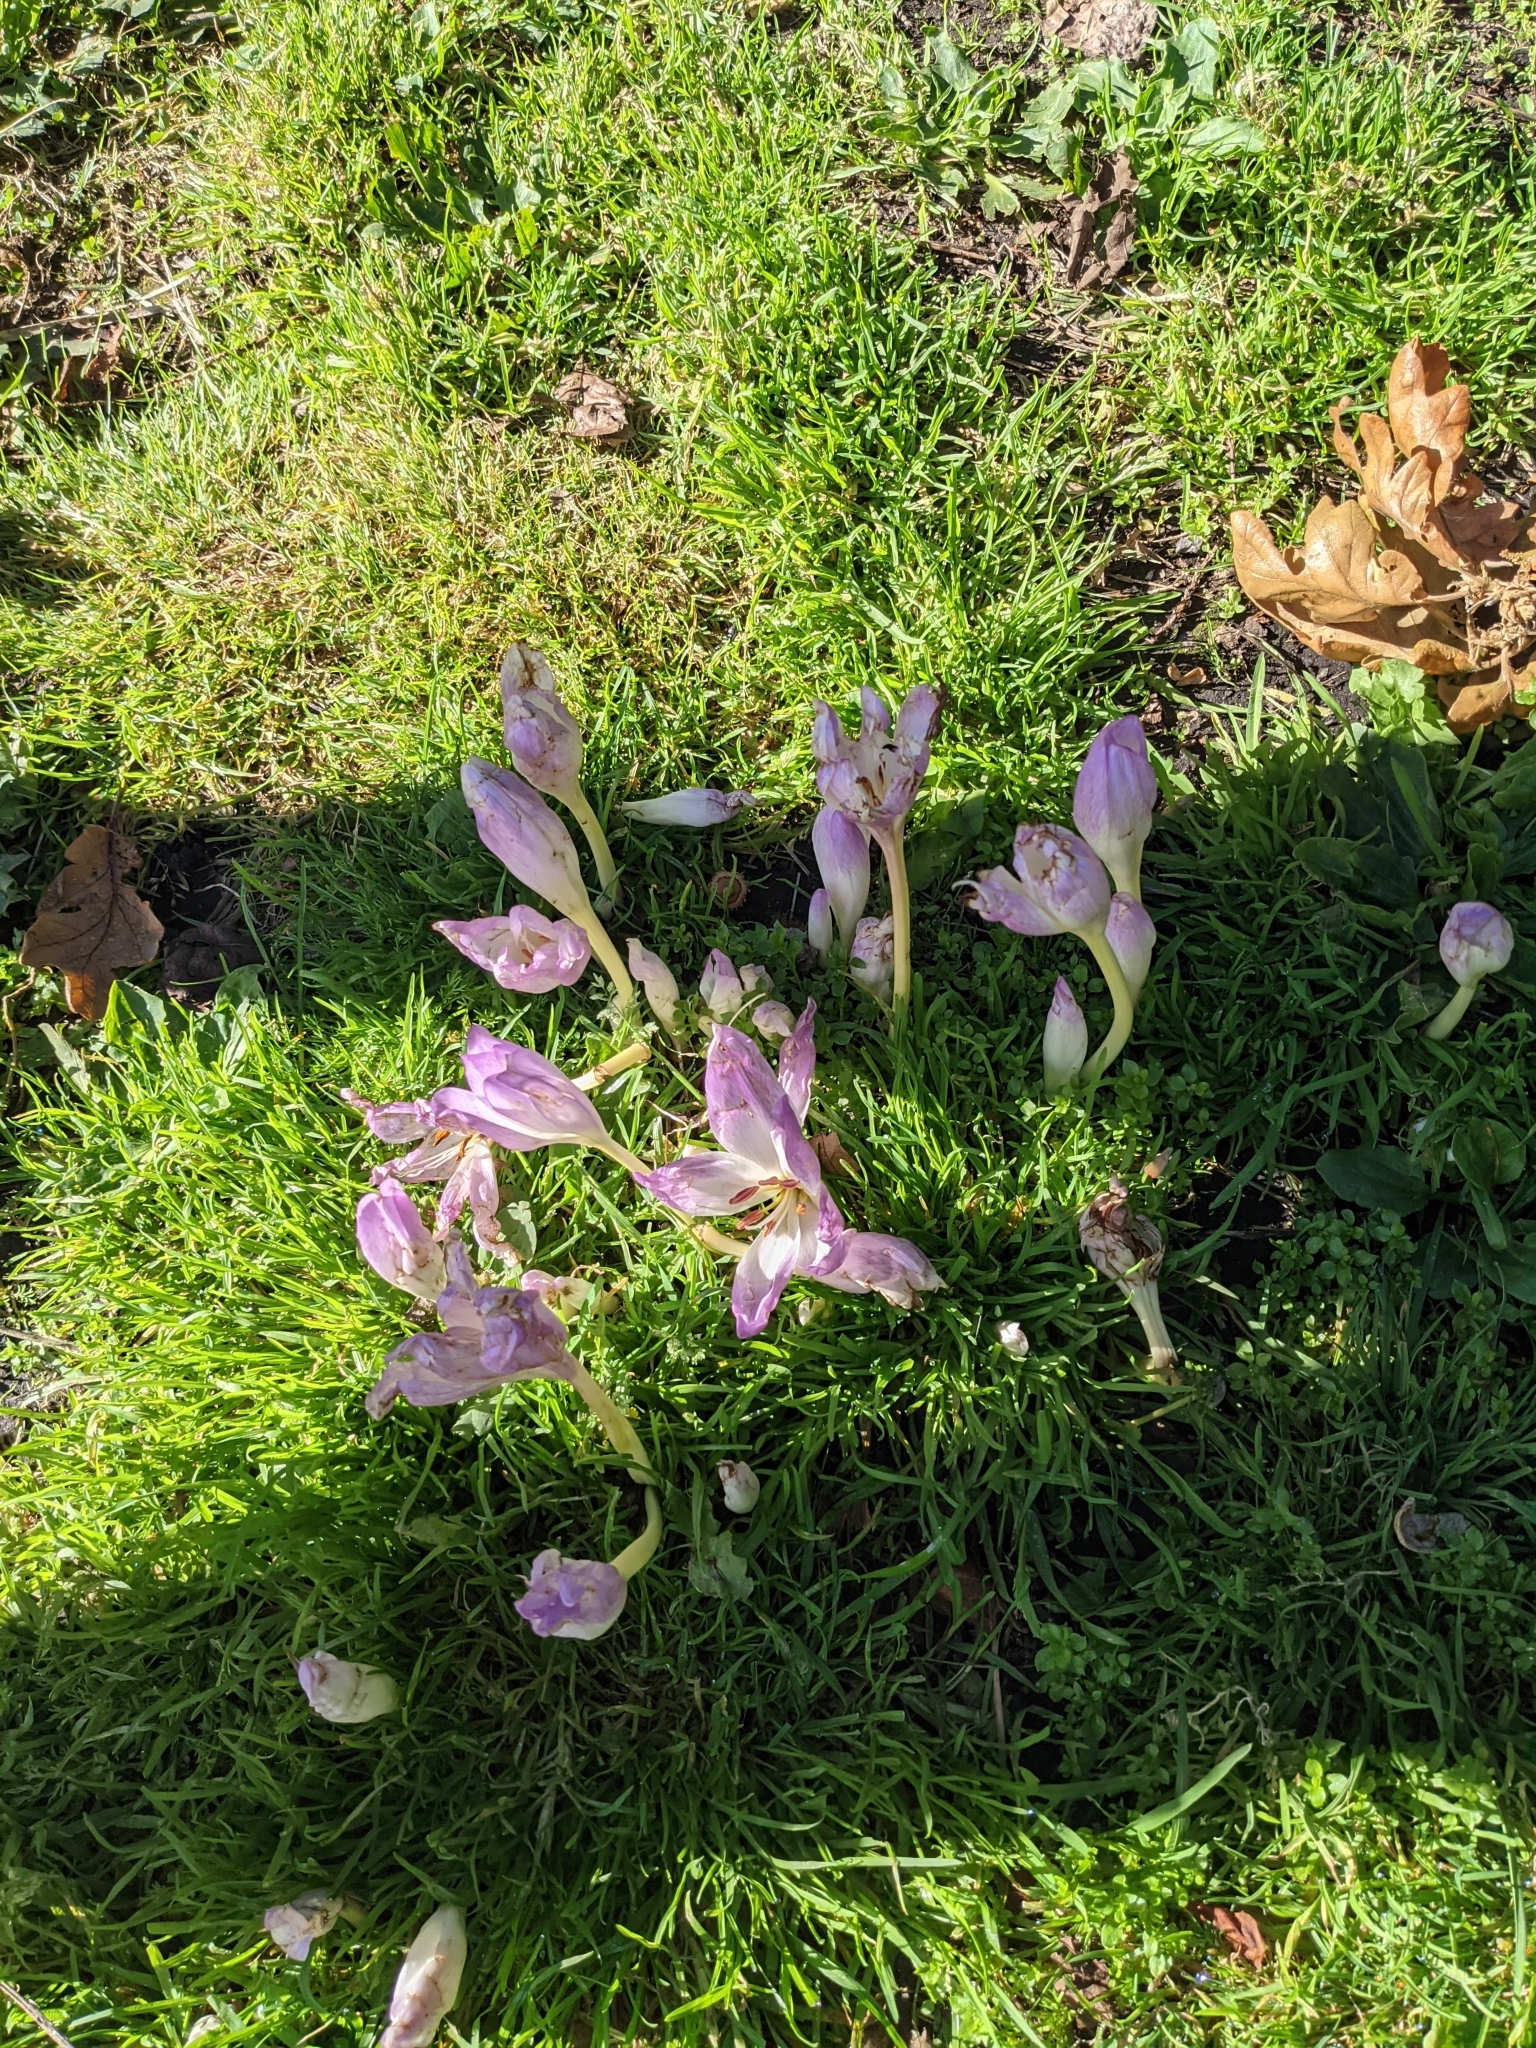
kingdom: Plantae
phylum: Tracheophyta
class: Liliopsida
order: Liliales
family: Colchicaceae
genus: Colchicum
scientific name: Colchicum autumnale
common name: Autumn crocus
